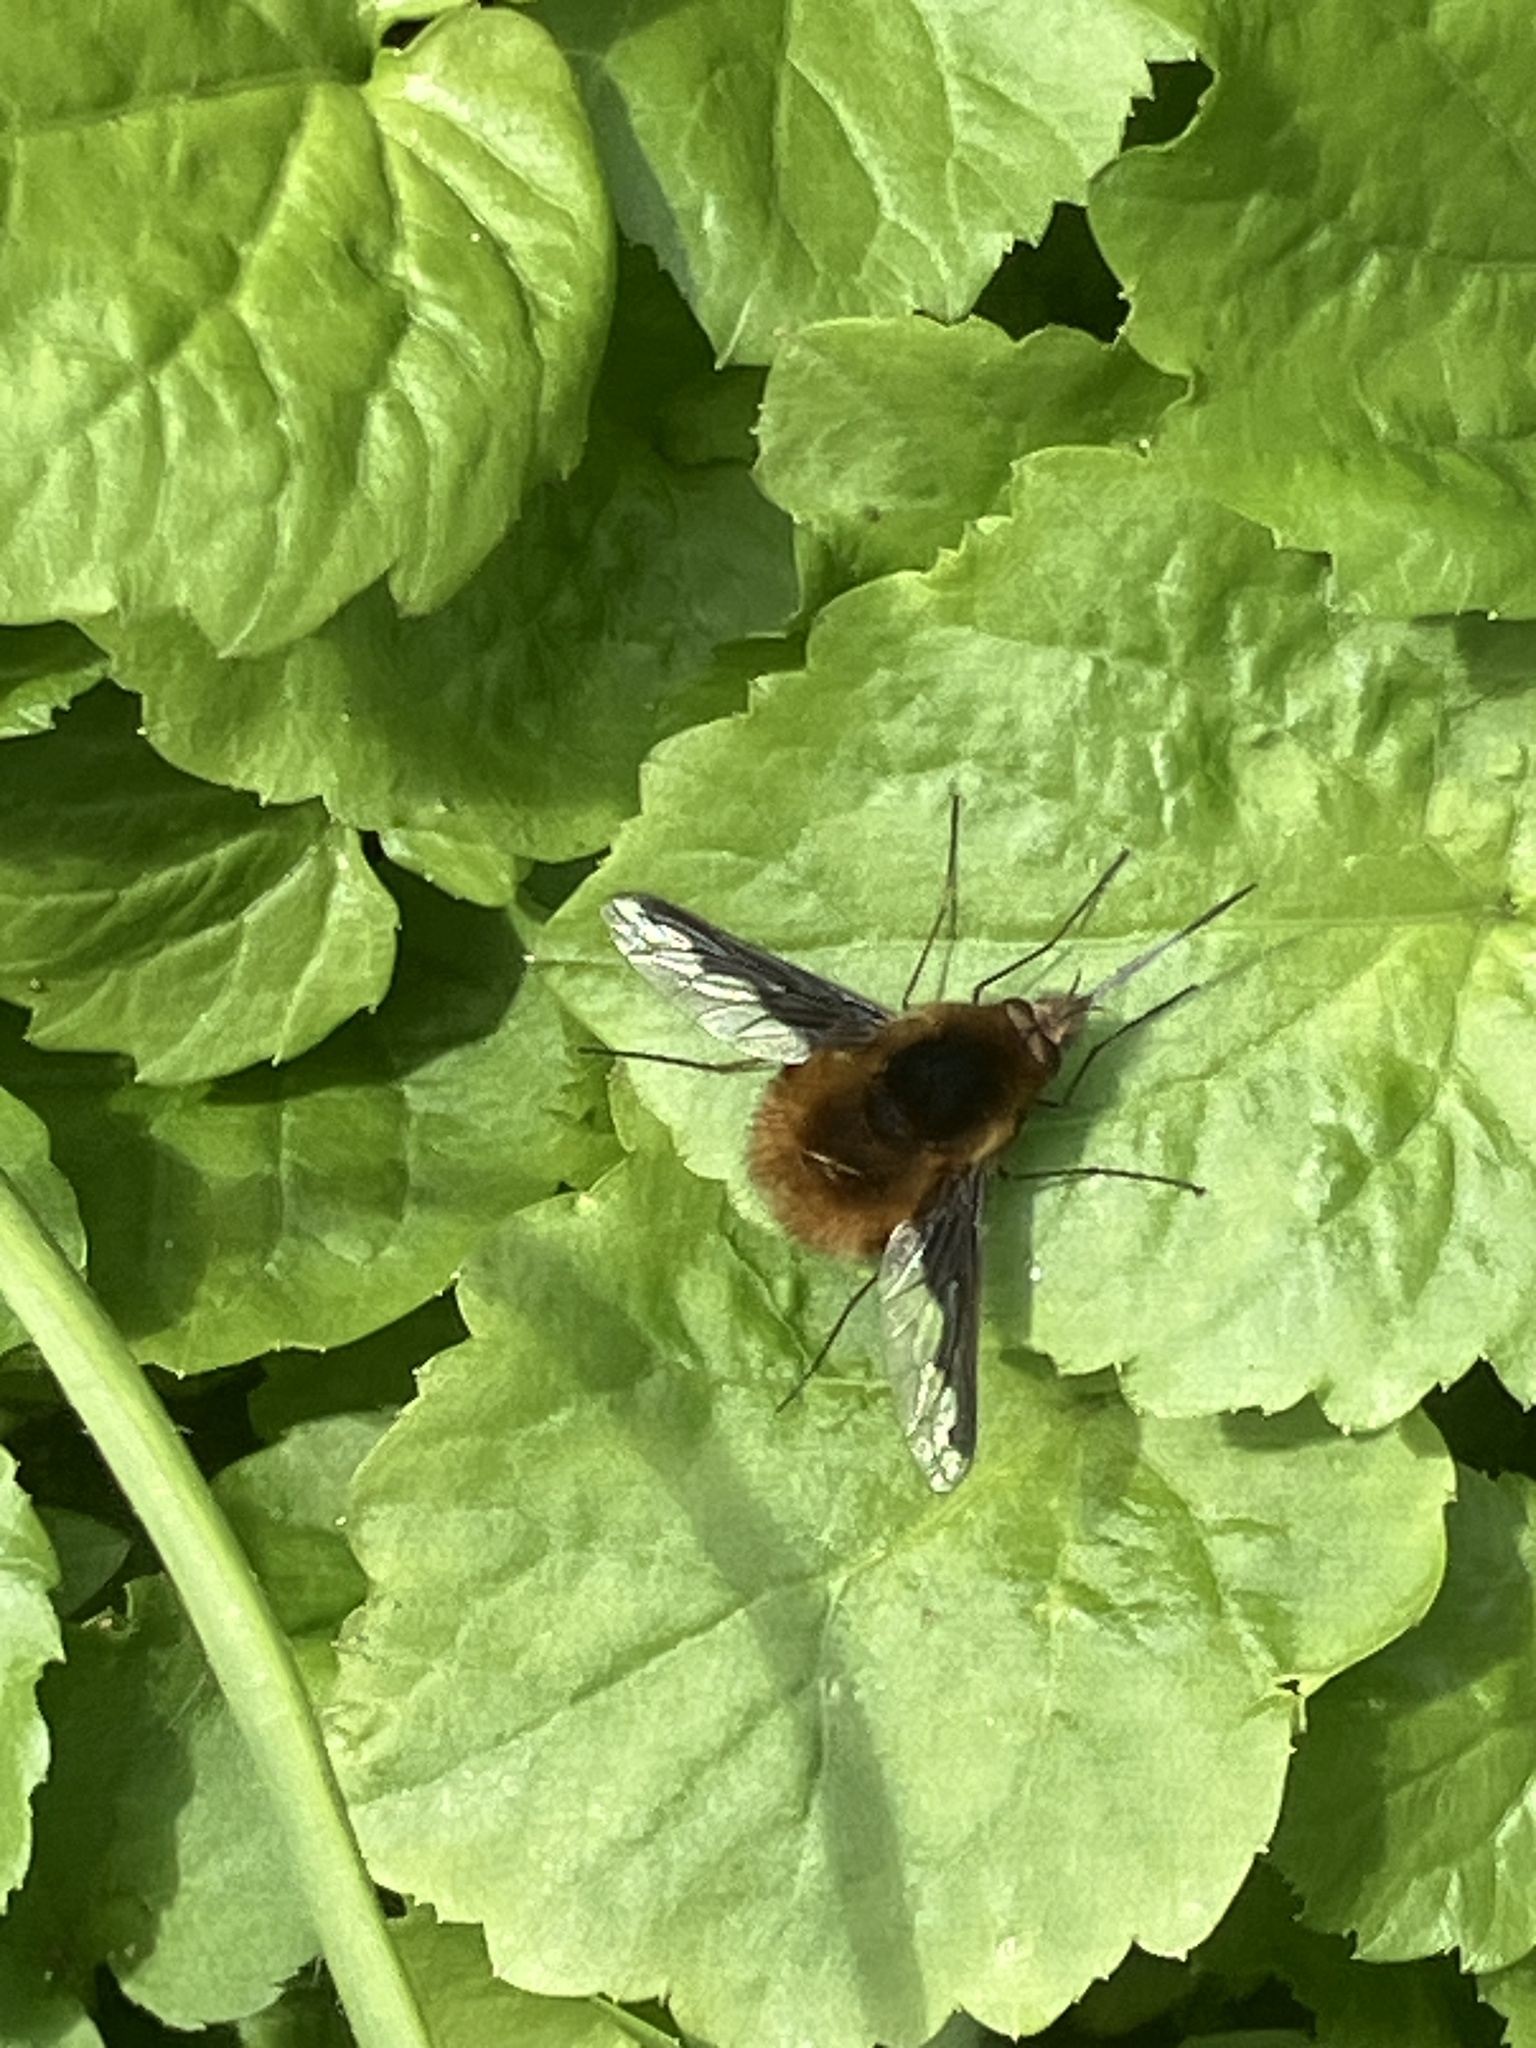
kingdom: Animalia
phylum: Arthropoda
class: Insecta
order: Diptera
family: Bombyliidae
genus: Bombylius
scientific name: Bombylius major
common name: Bee fly
